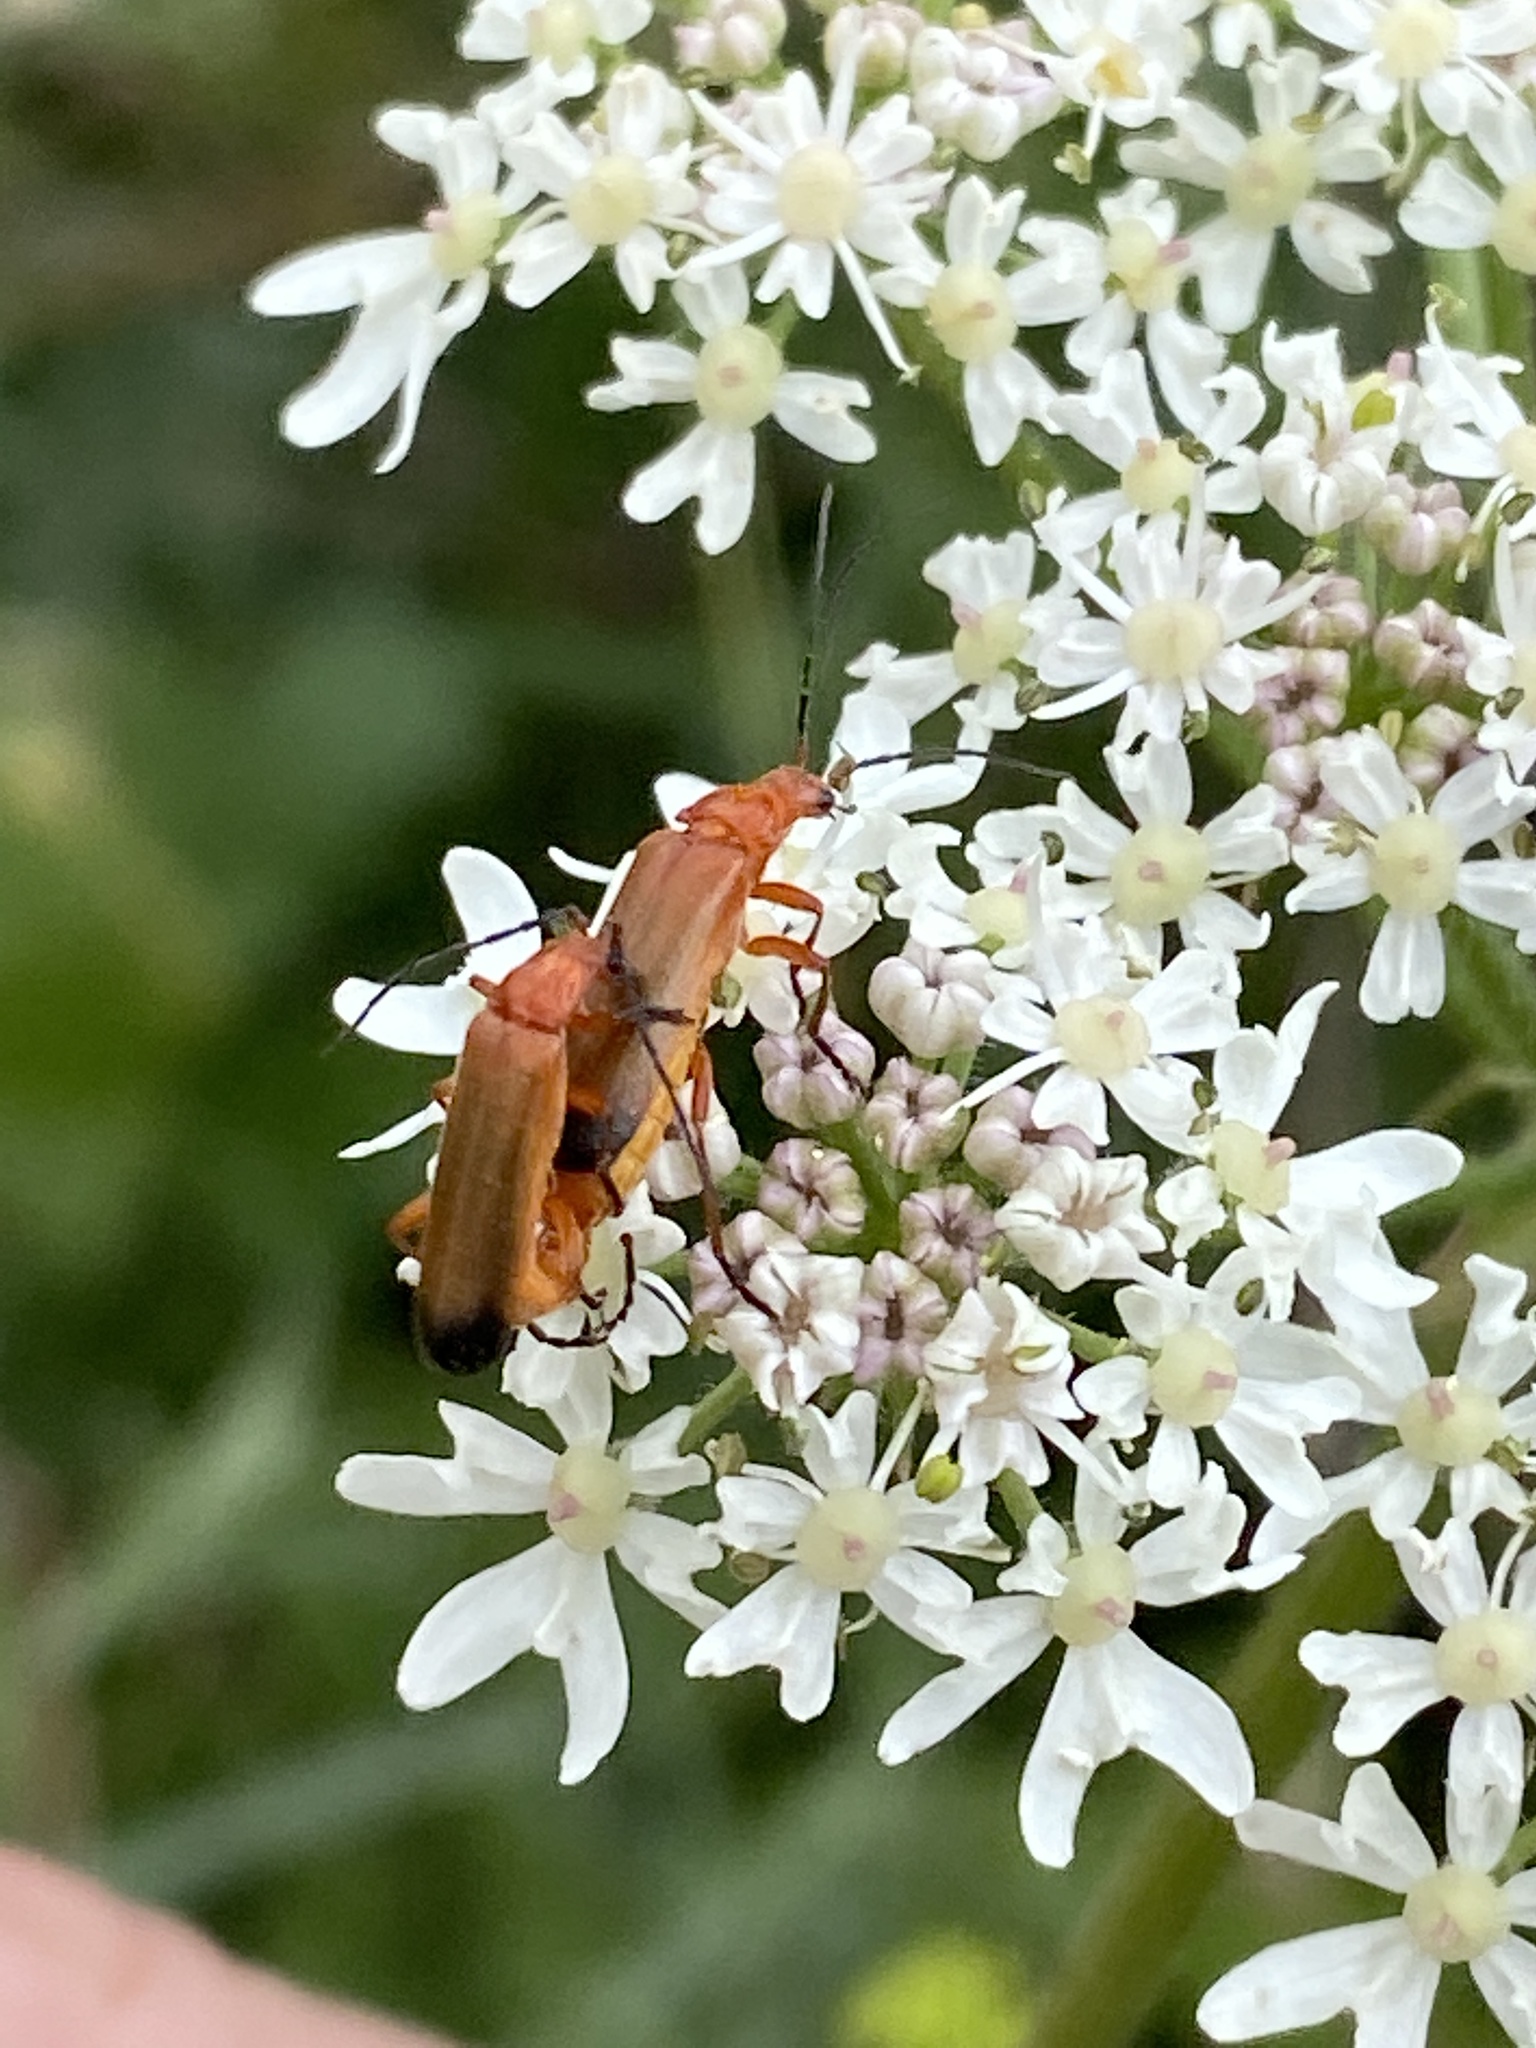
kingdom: Animalia
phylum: Arthropoda
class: Insecta
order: Coleoptera
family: Cantharidae
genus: Rhagonycha
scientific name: Rhagonycha fulva
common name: Common red soldier beetle
